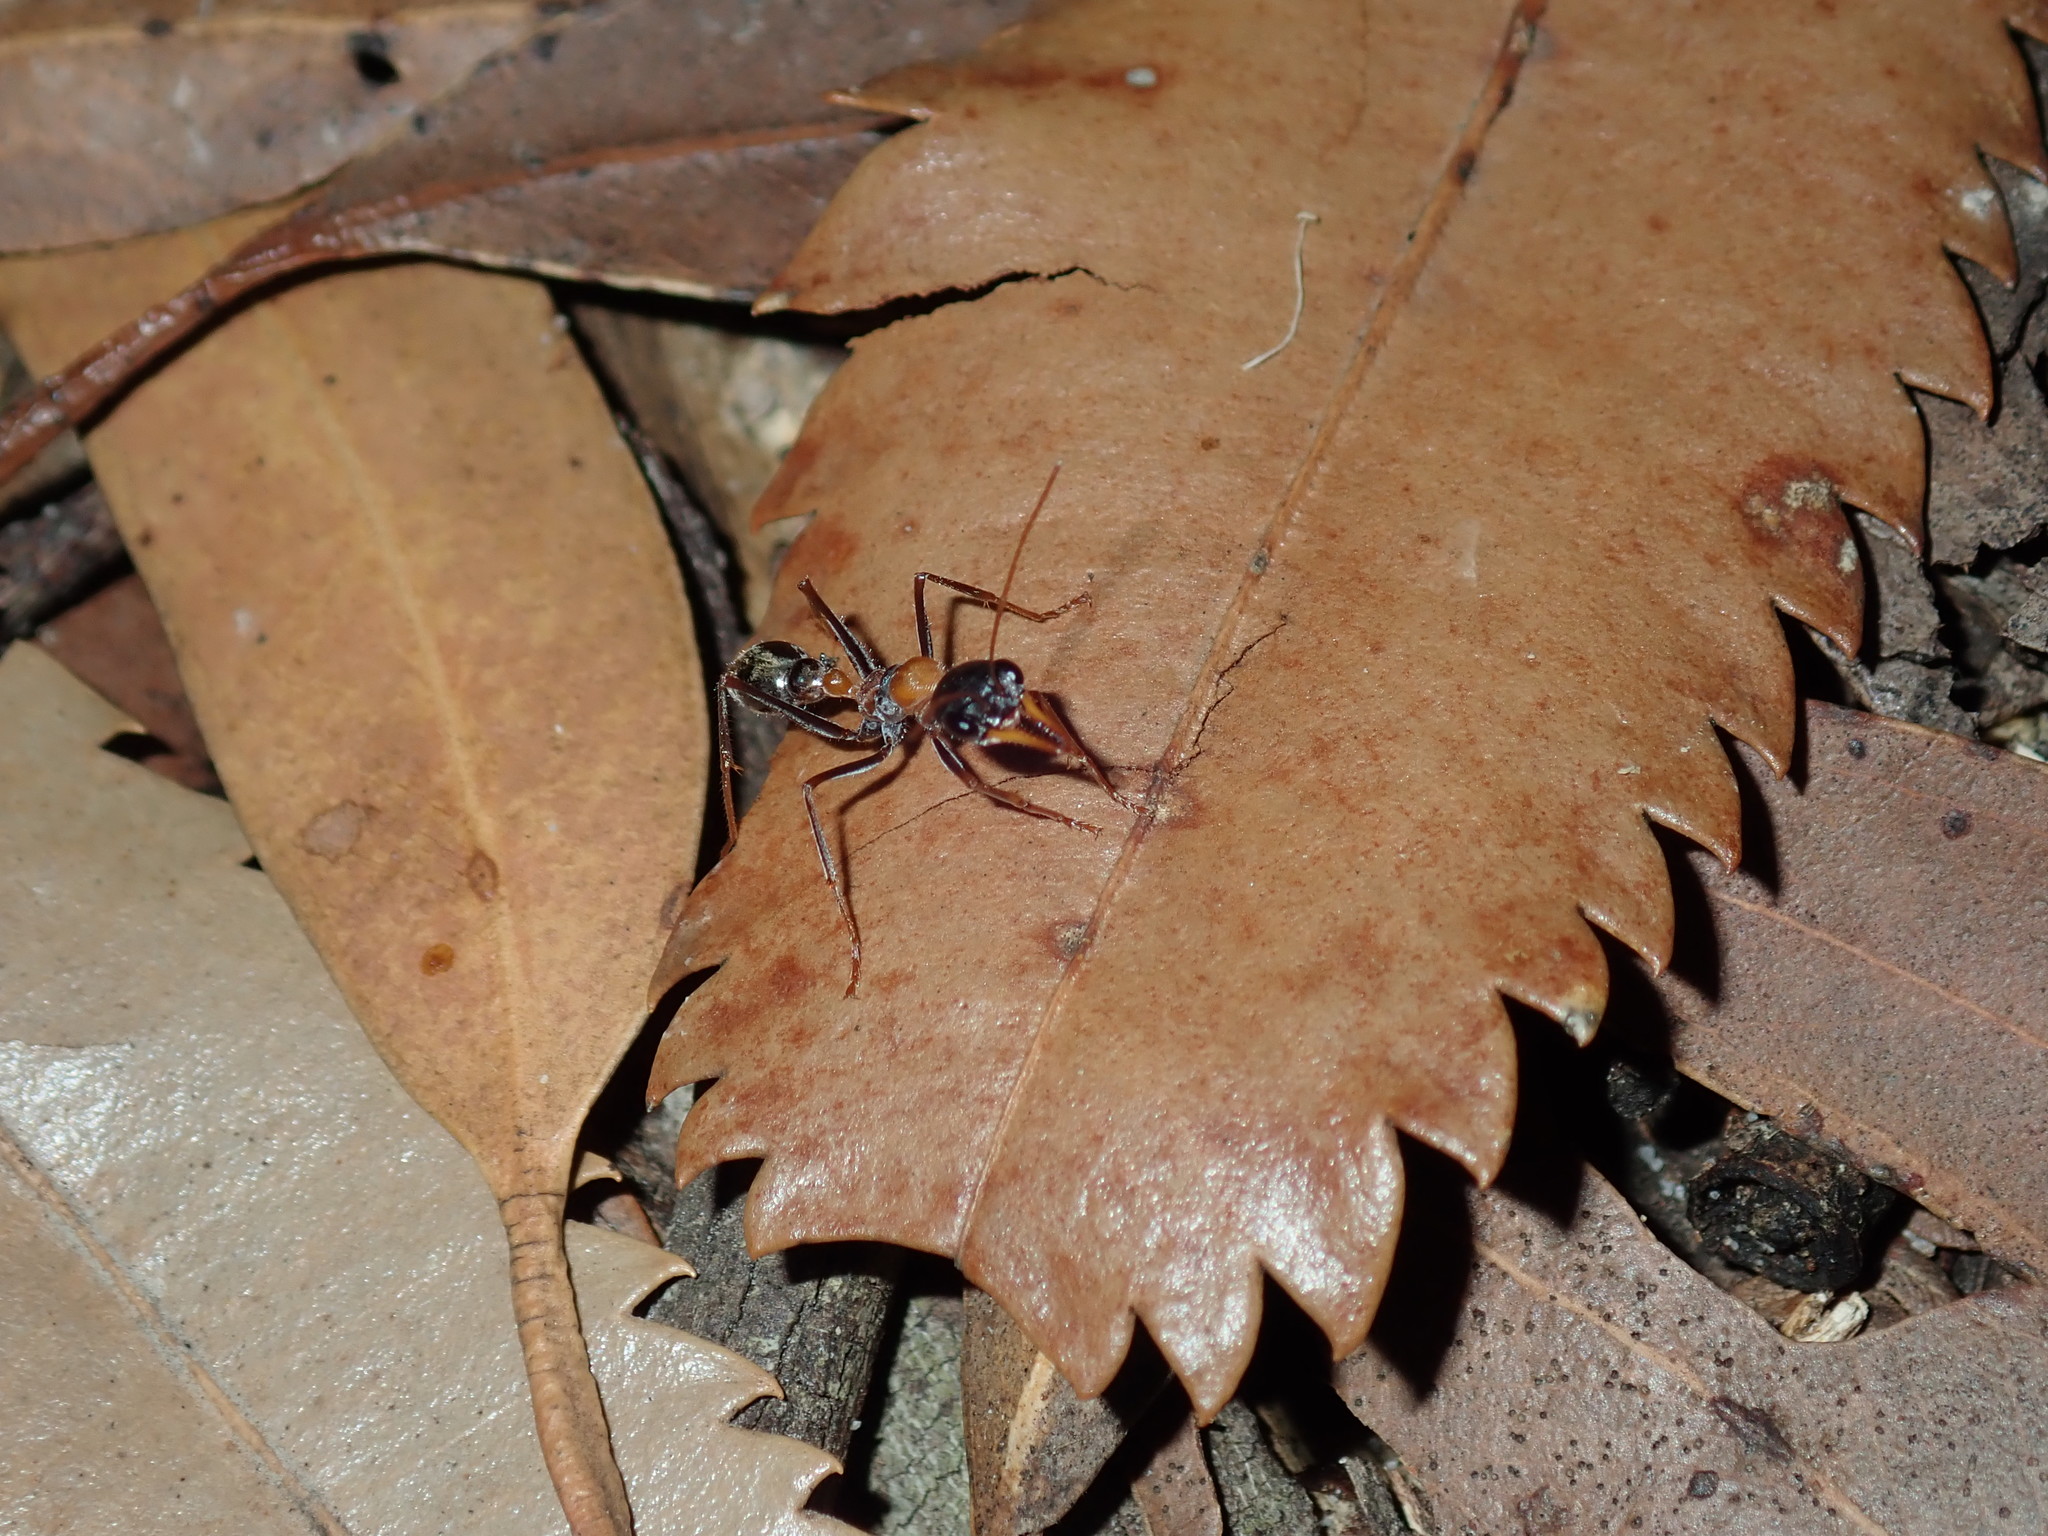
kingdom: Animalia
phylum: Arthropoda
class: Insecta
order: Hymenoptera
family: Formicidae
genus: Myrmecia
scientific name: Myrmecia nigrocincta
